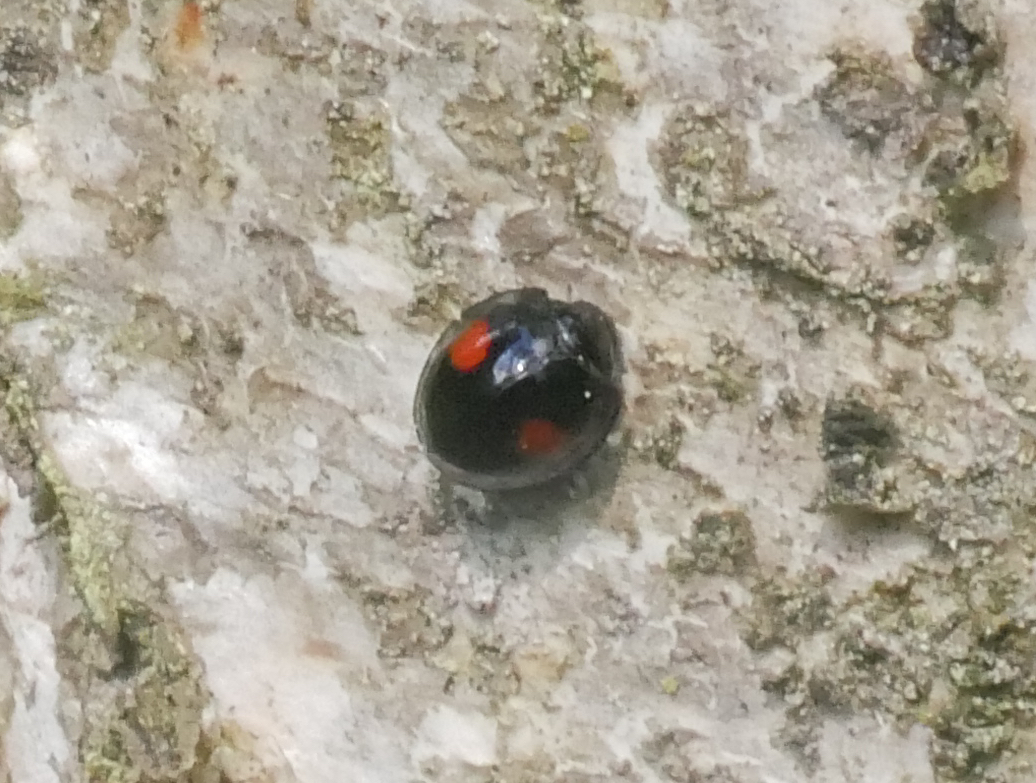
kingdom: Animalia
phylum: Arthropoda
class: Insecta
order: Coleoptera
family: Coccinellidae
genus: Chilocorus
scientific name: Chilocorus renipustulatus
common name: Kidney-spot ladybird
